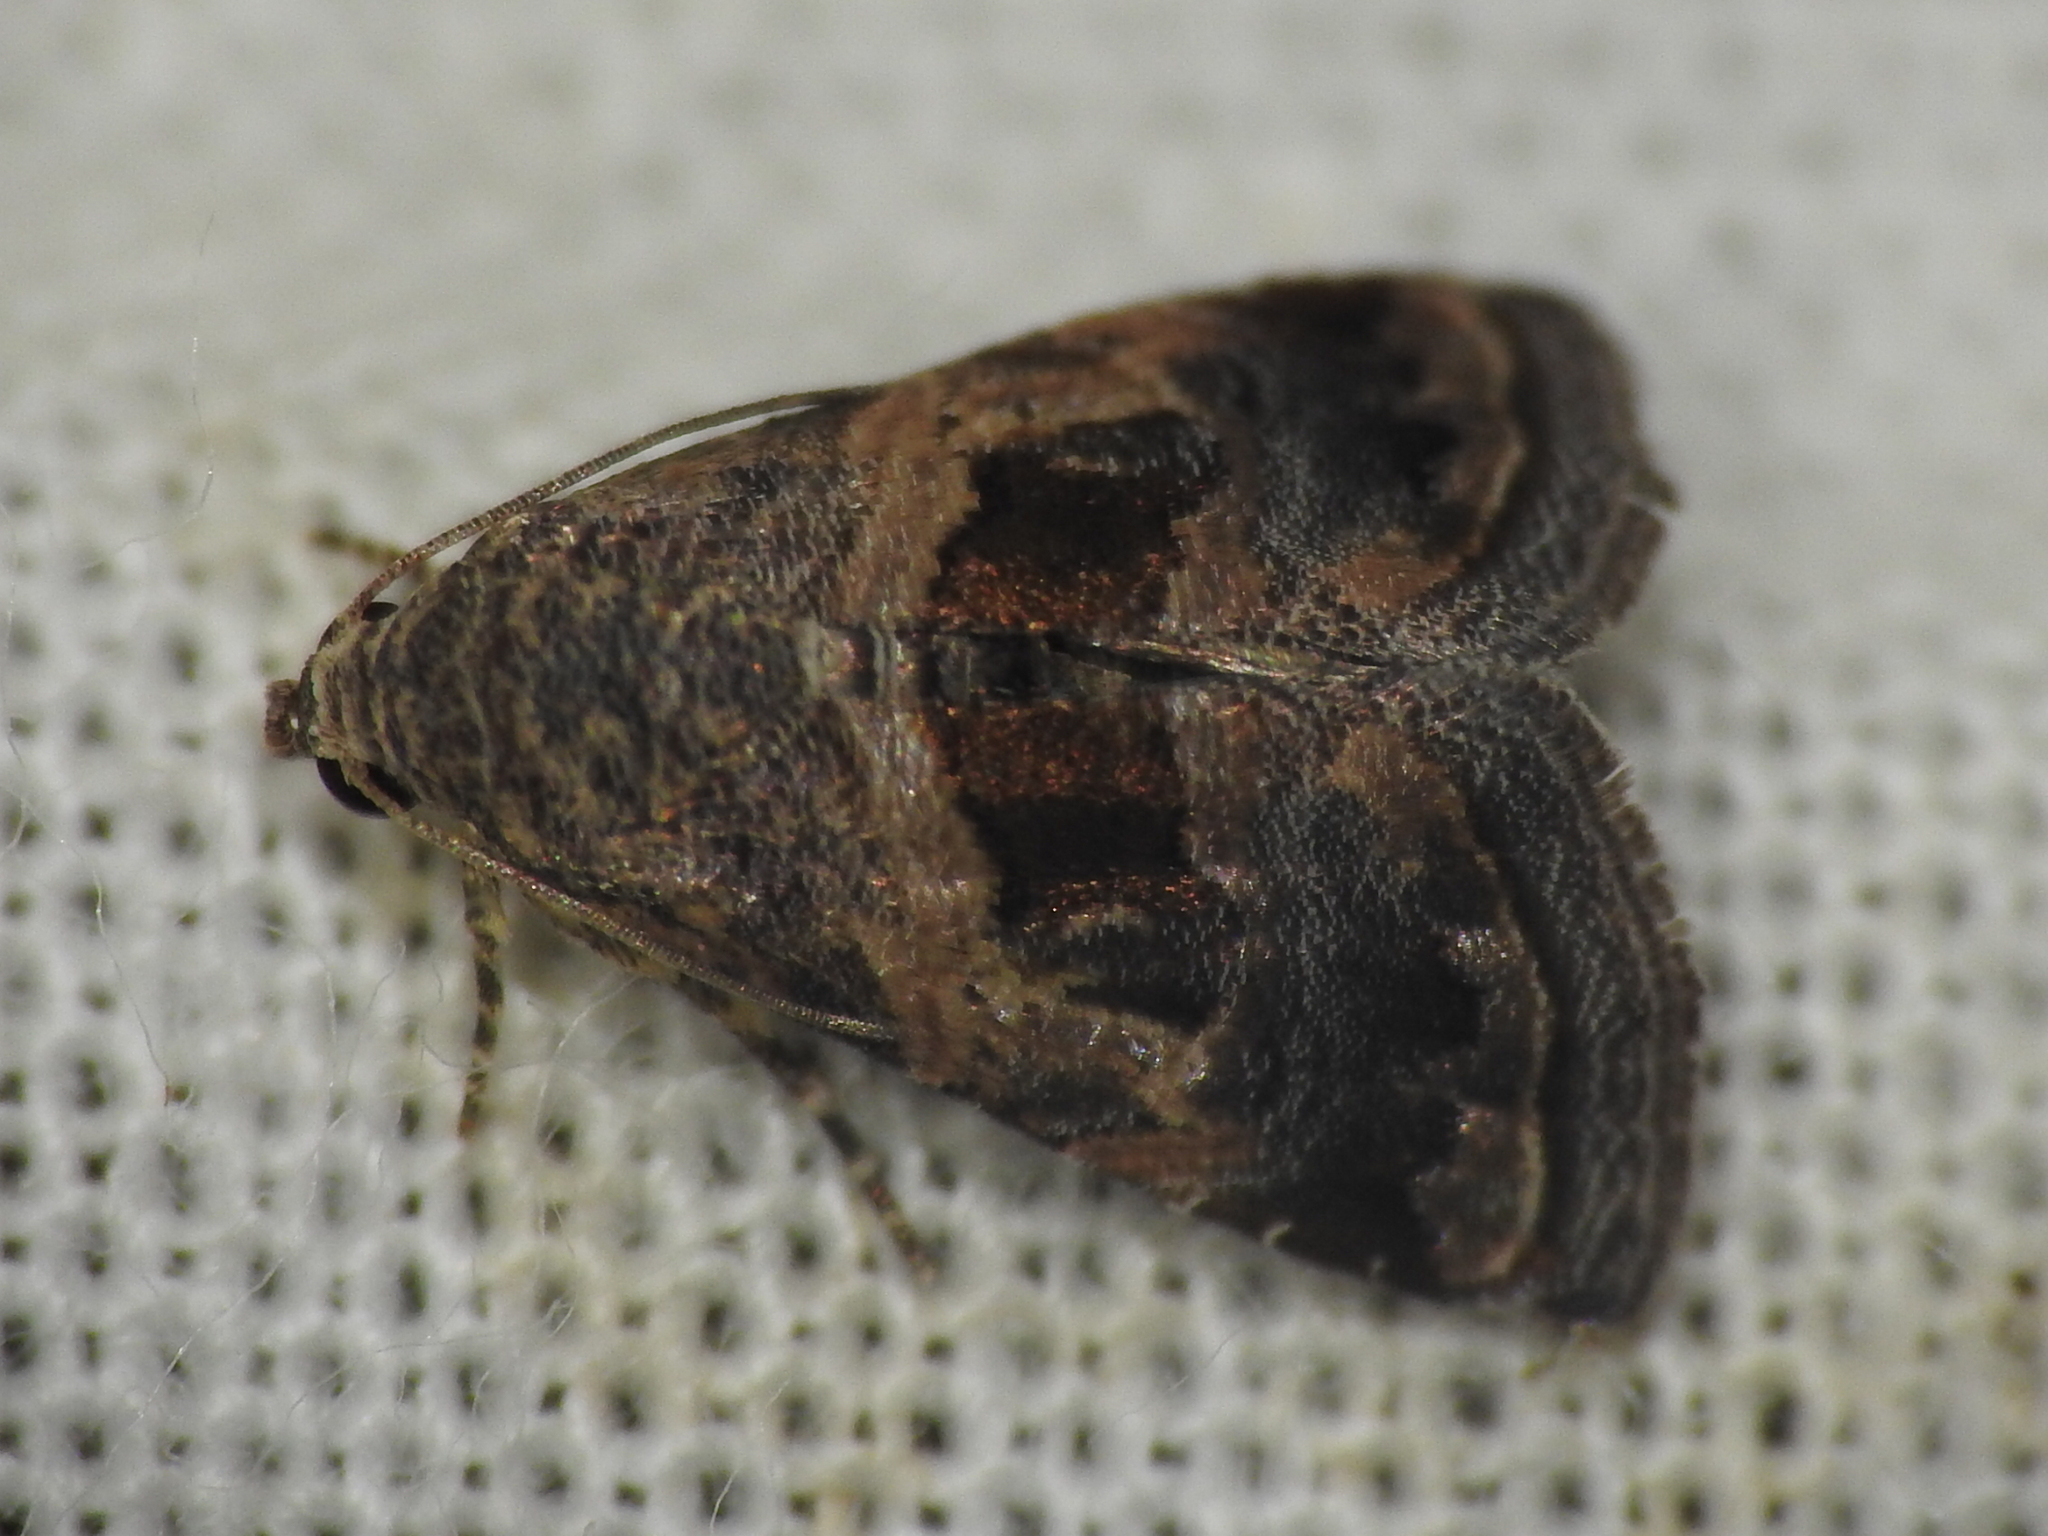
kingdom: Animalia
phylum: Arthropoda
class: Insecta
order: Lepidoptera
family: Noctuidae
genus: Tripudia
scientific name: Tripudia quadrifera
